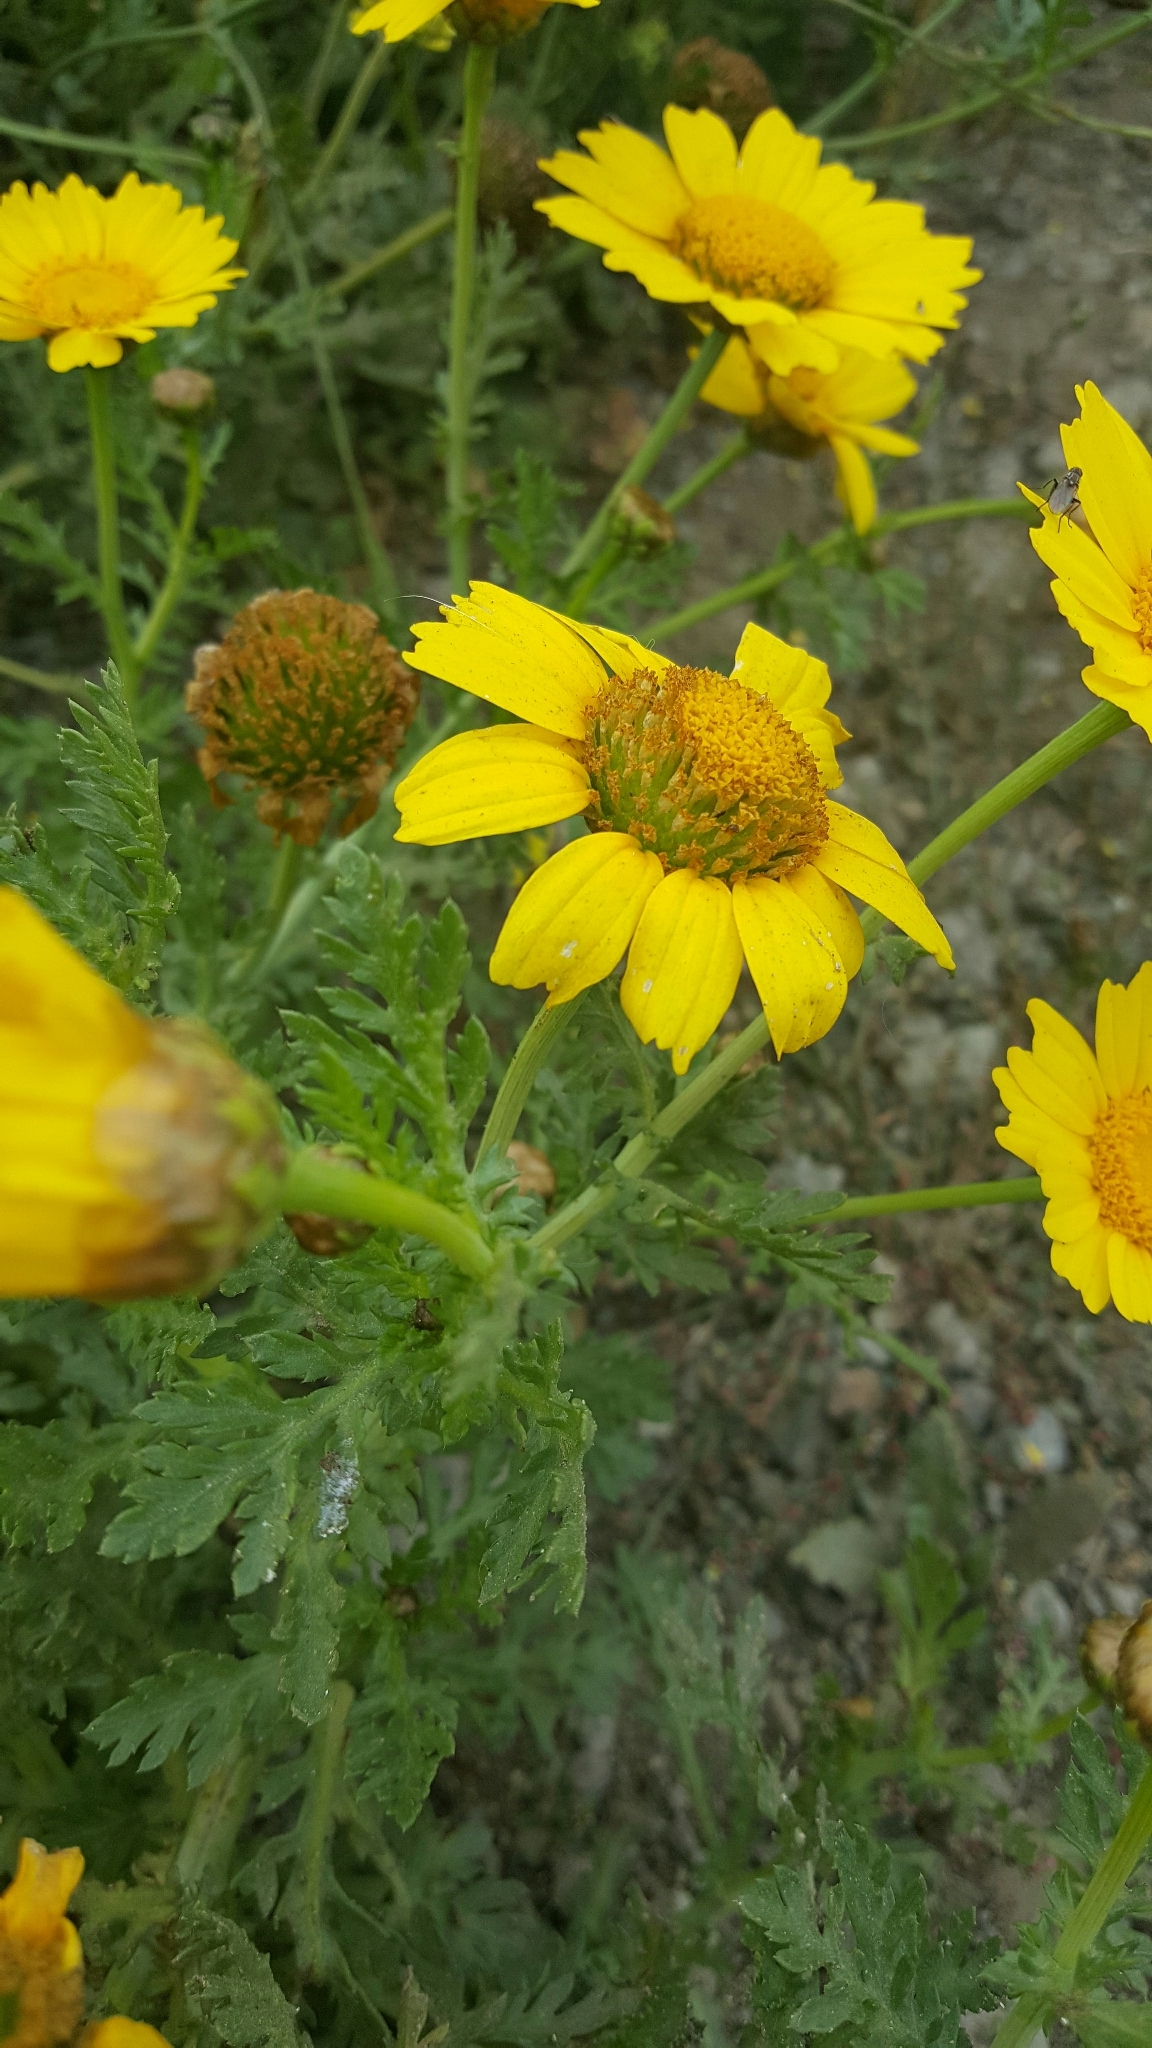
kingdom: Plantae
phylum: Tracheophyta
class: Magnoliopsida
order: Asterales
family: Asteraceae
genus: Glebionis
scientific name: Glebionis coronaria
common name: Crowndaisy
